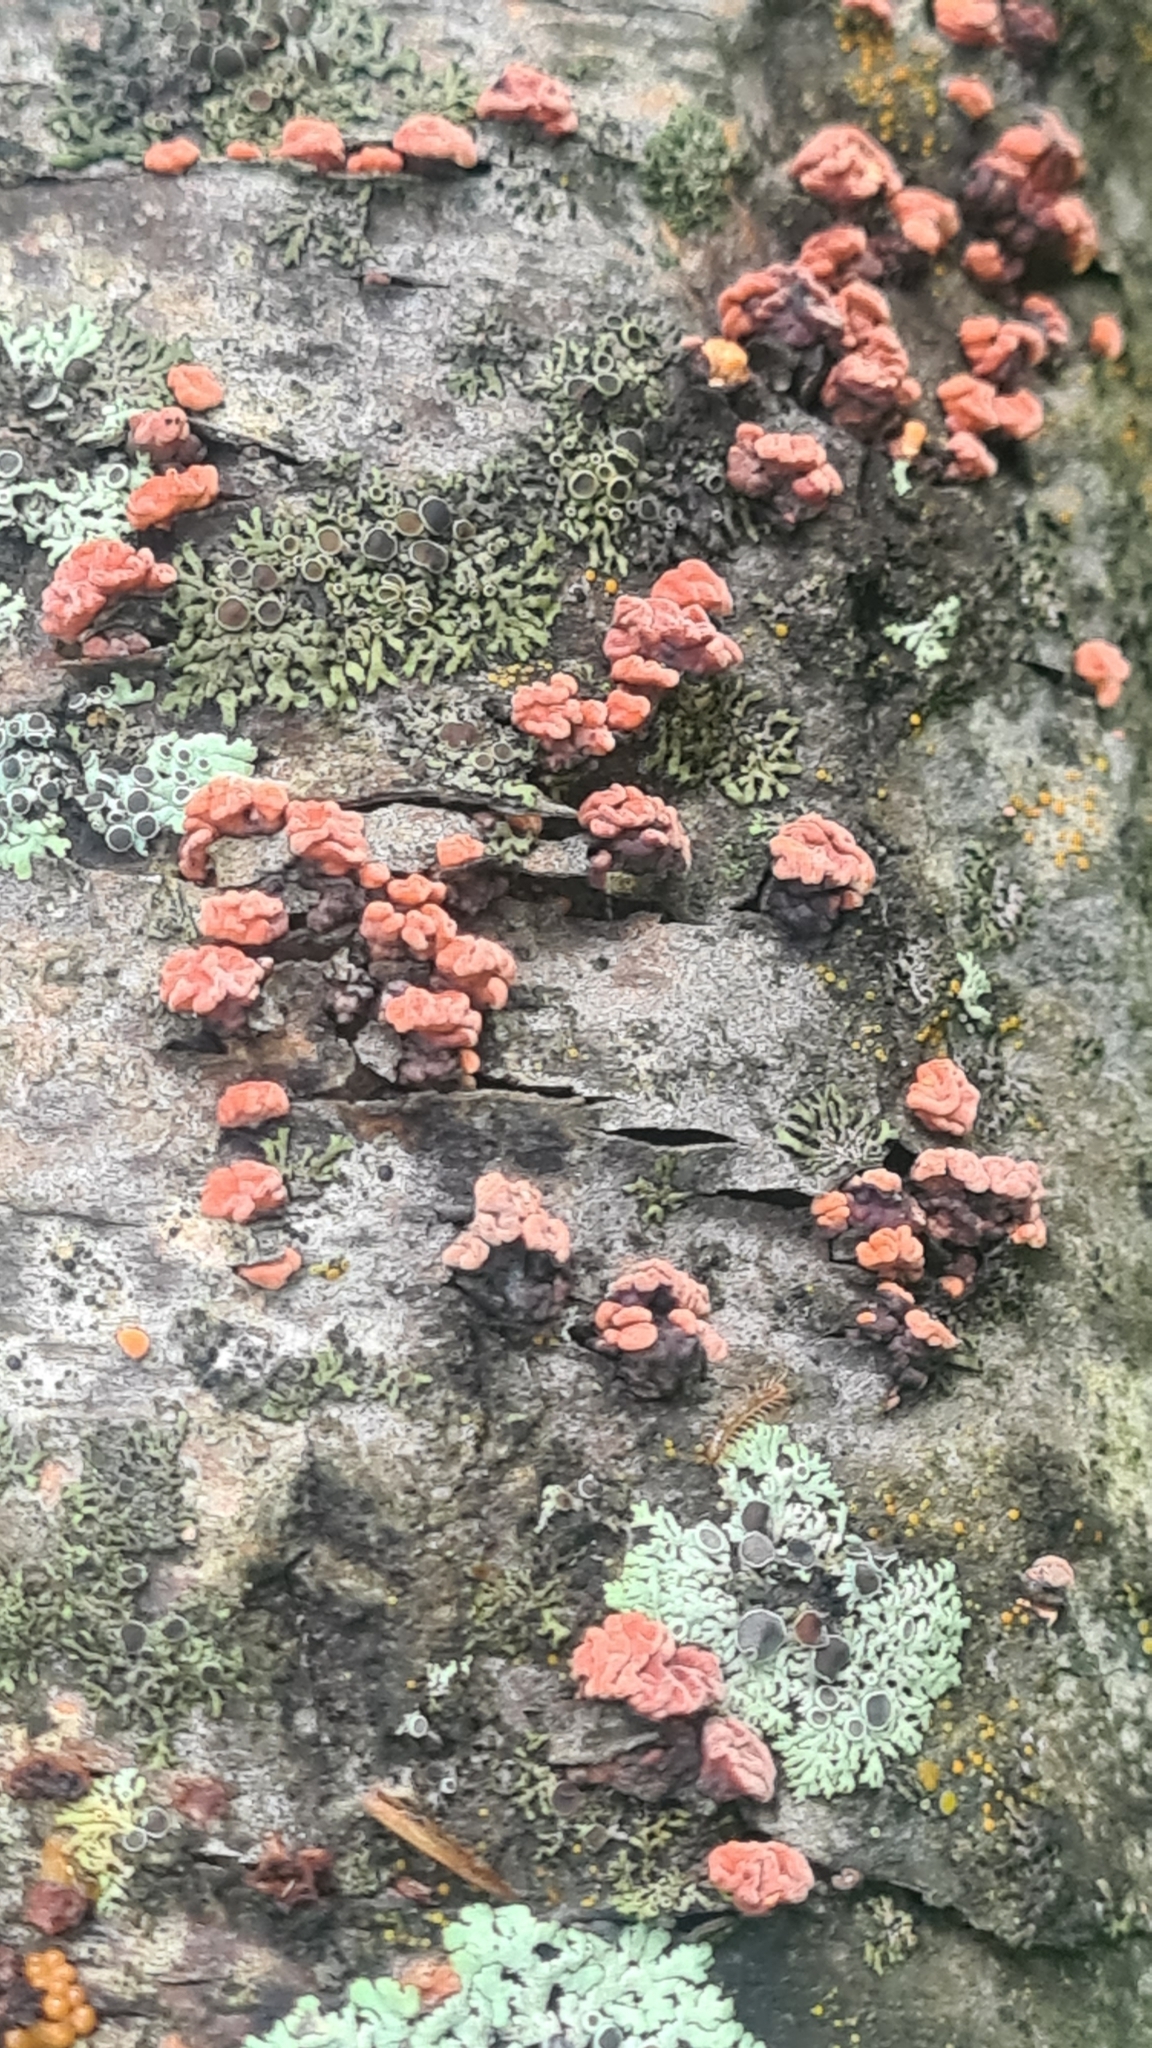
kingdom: Fungi
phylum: Basidiomycota
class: Agaricomycetes
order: Russulales
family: Peniophoraceae
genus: Peniophora
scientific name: Peniophora rufa
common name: Red tree brain fungus
